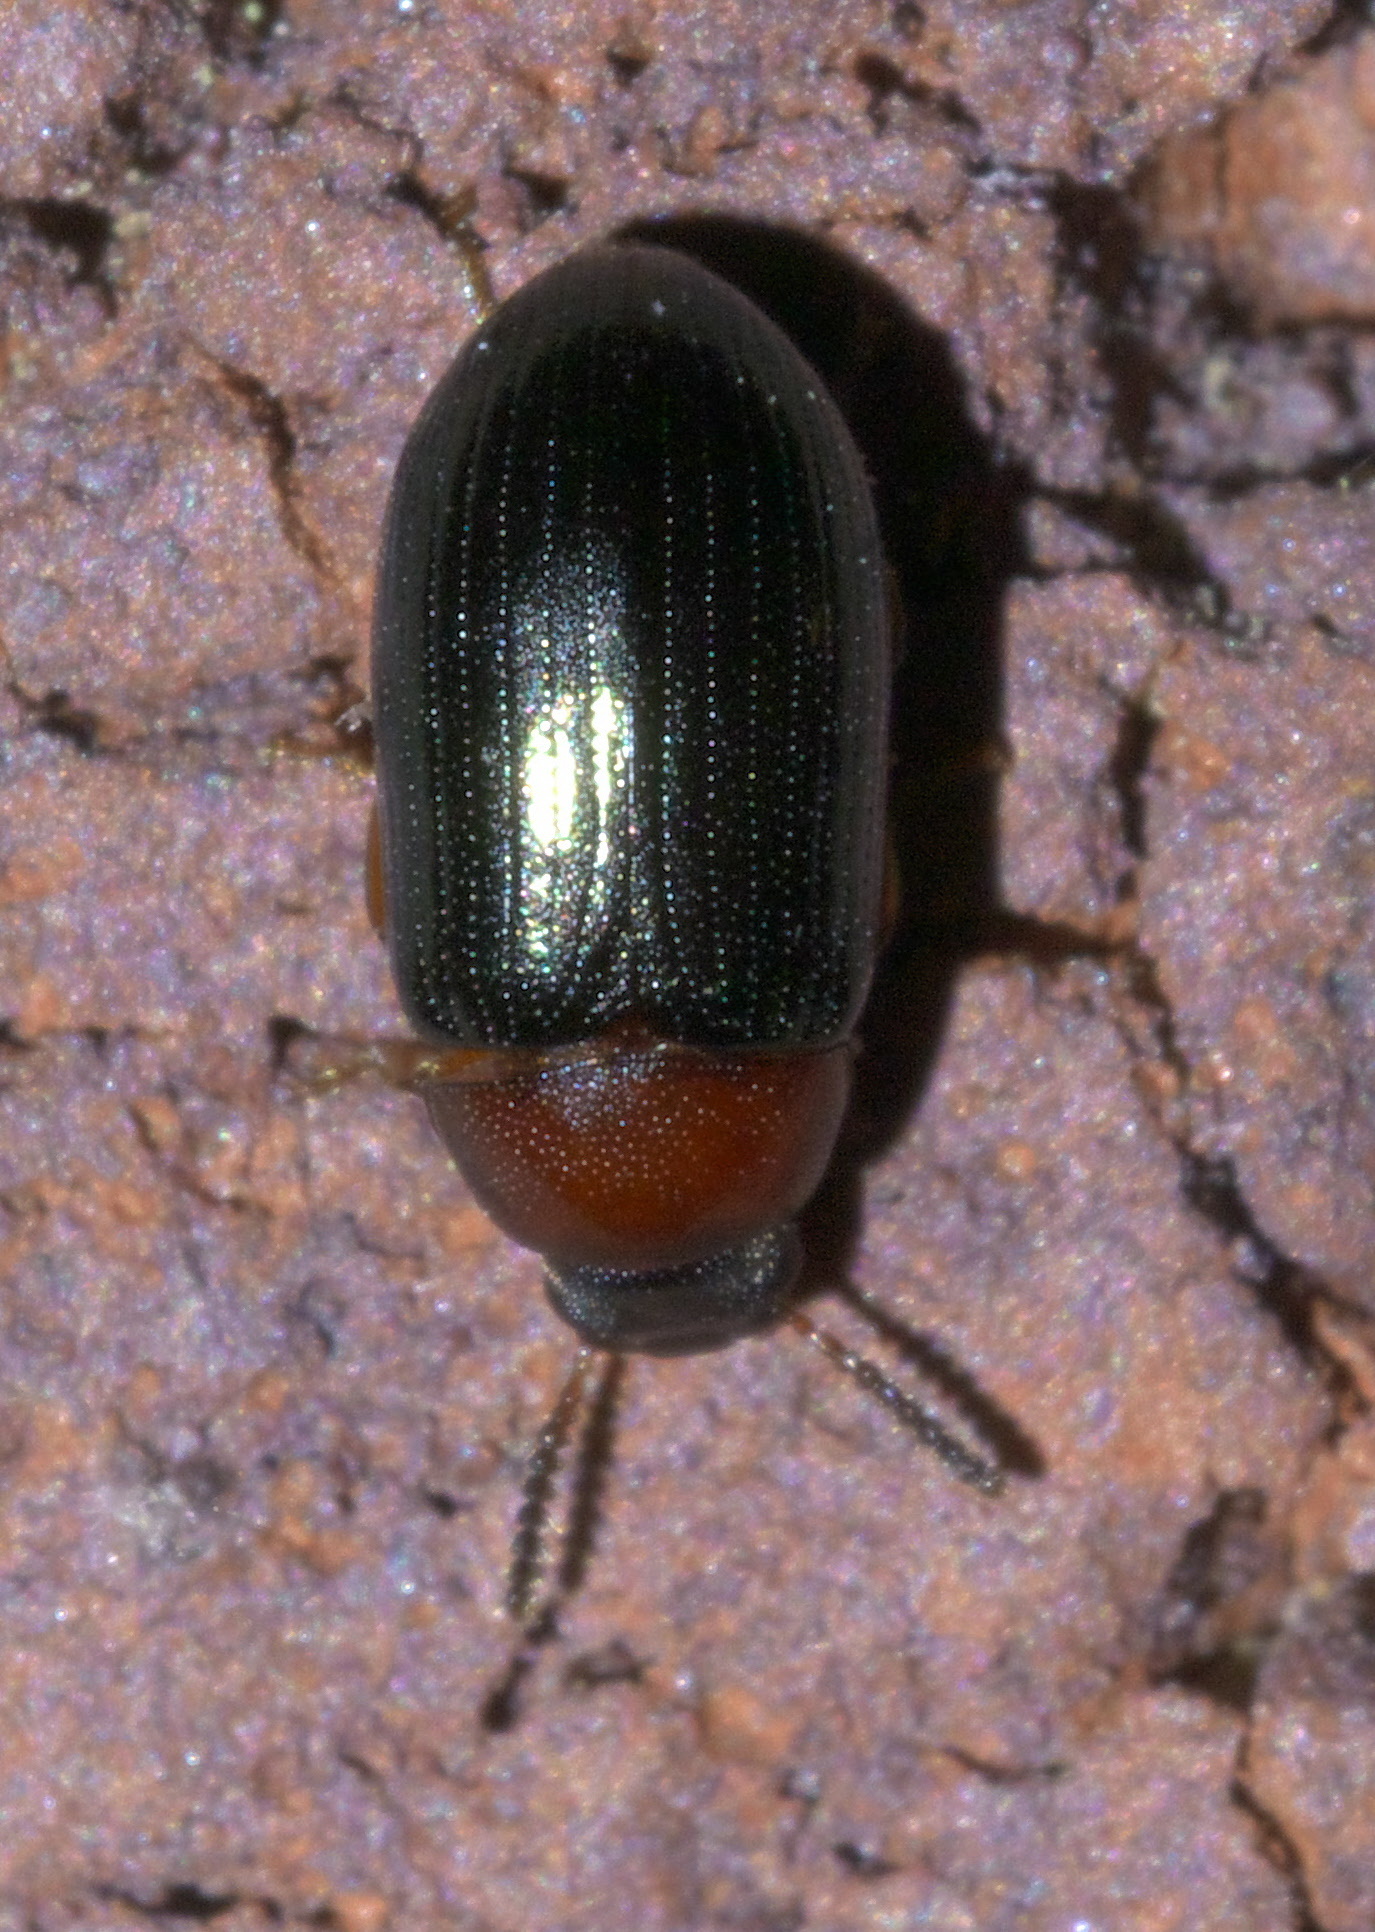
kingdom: Animalia
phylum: Arthropoda
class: Insecta
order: Coleoptera
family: Tenebrionidae
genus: Neomida
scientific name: Neomida bicornis
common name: Two-horned darkling beetle
